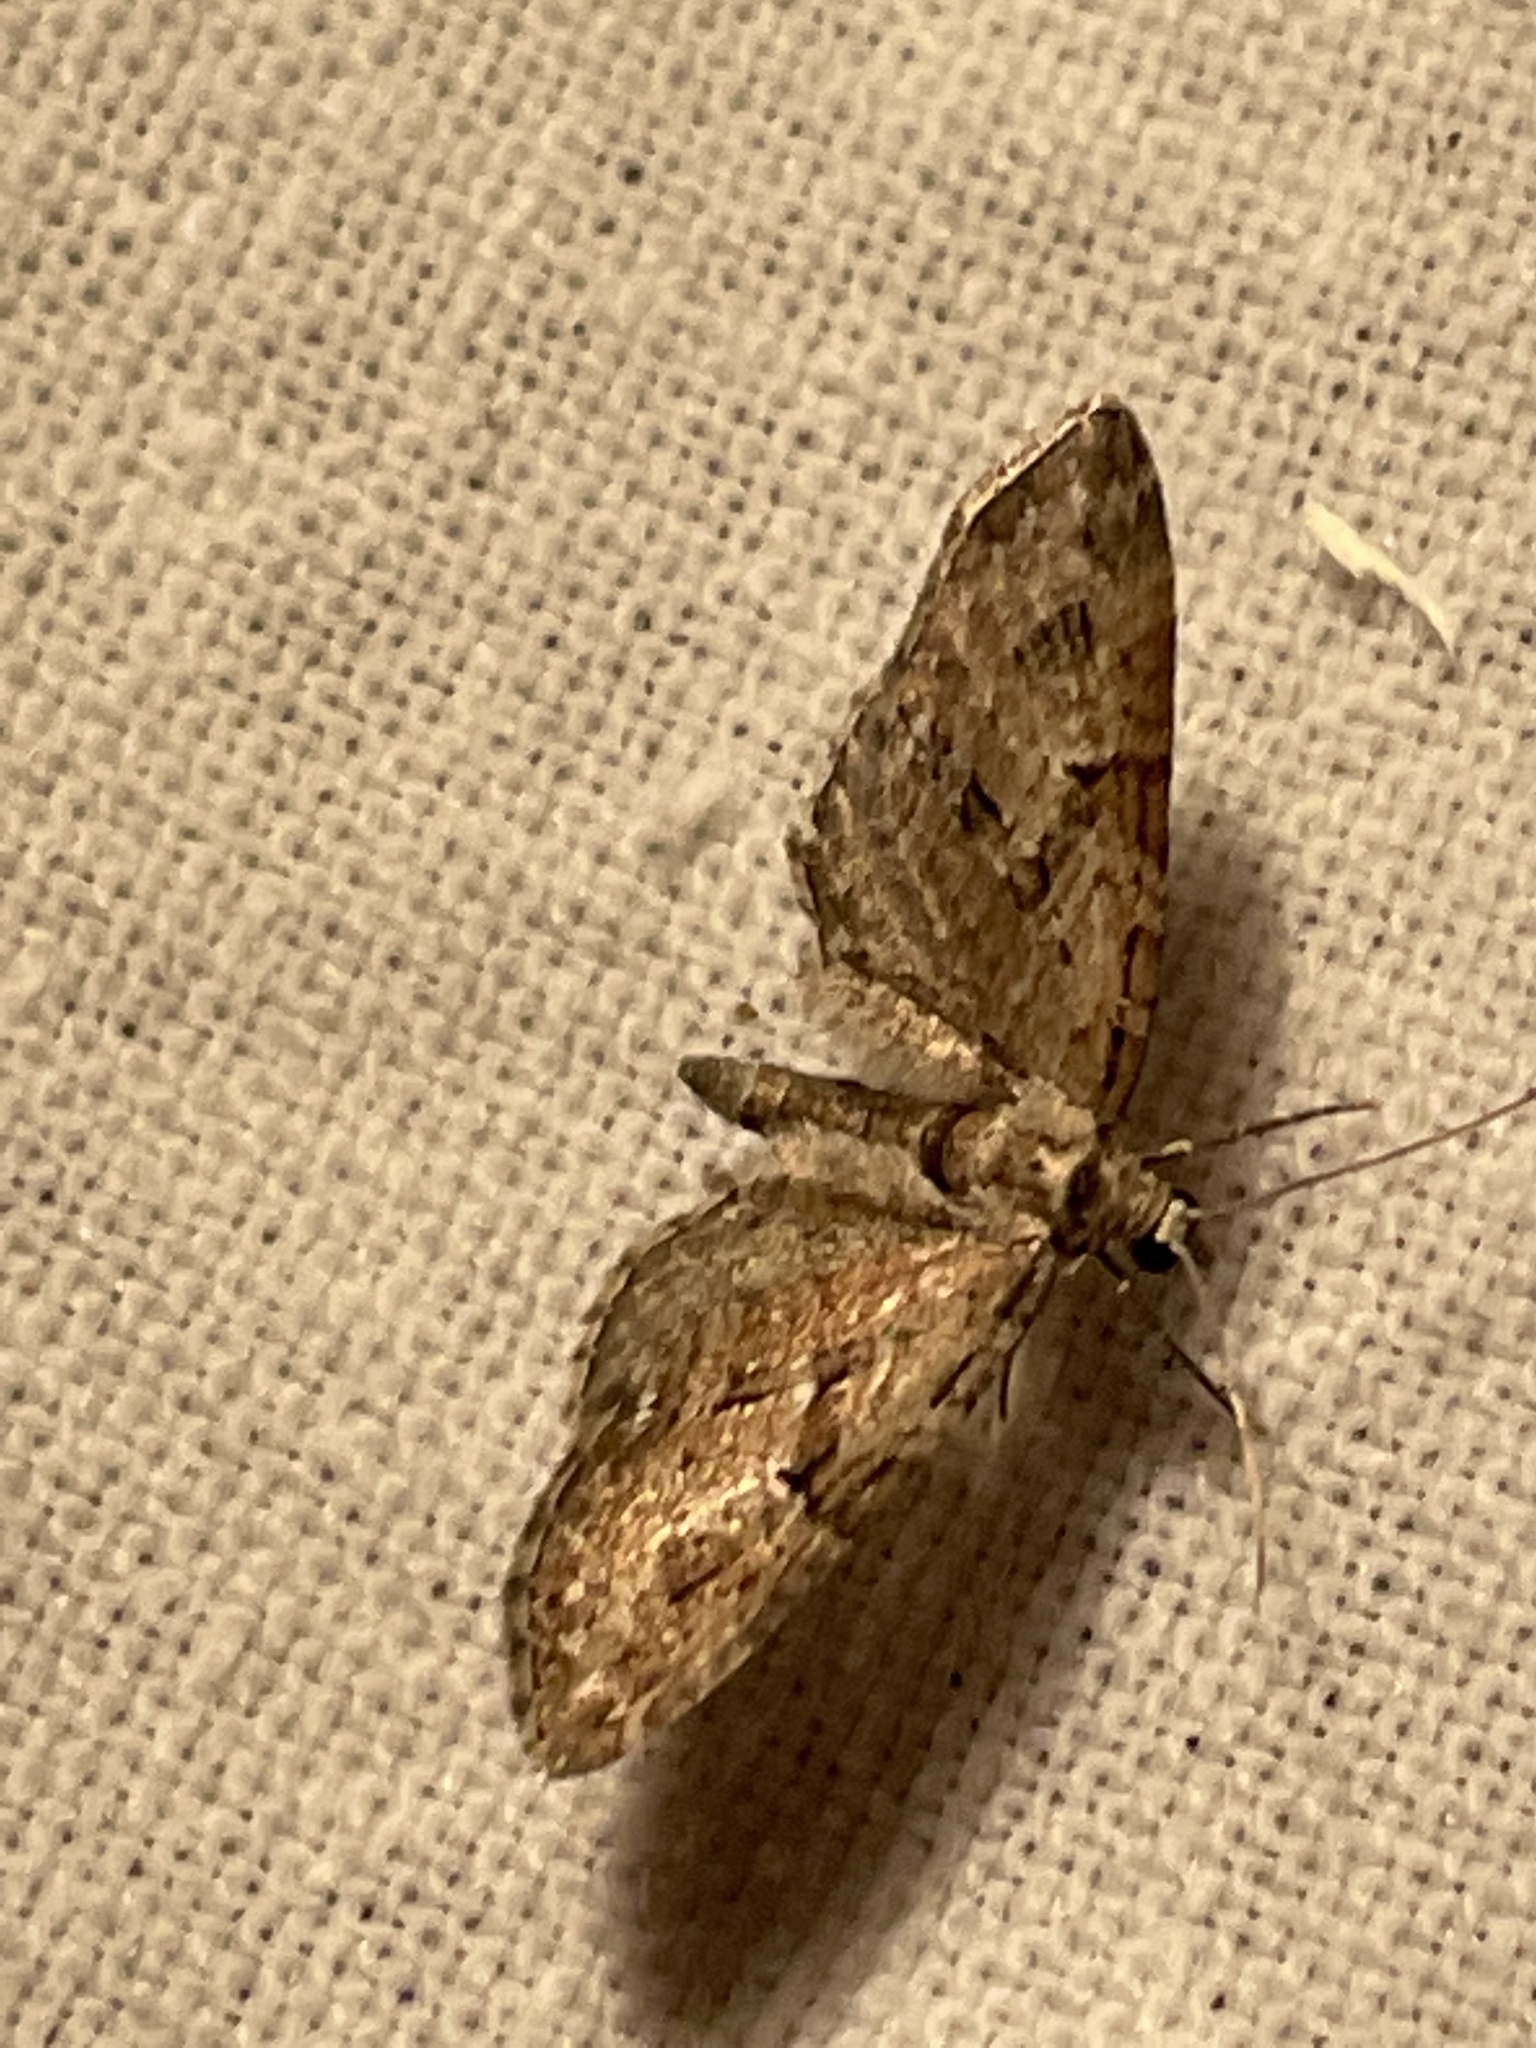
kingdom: Animalia
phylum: Arthropoda
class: Insecta
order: Lepidoptera
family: Geometridae
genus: Eupithecia
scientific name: Eupithecia pusillata
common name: Juniper pug
